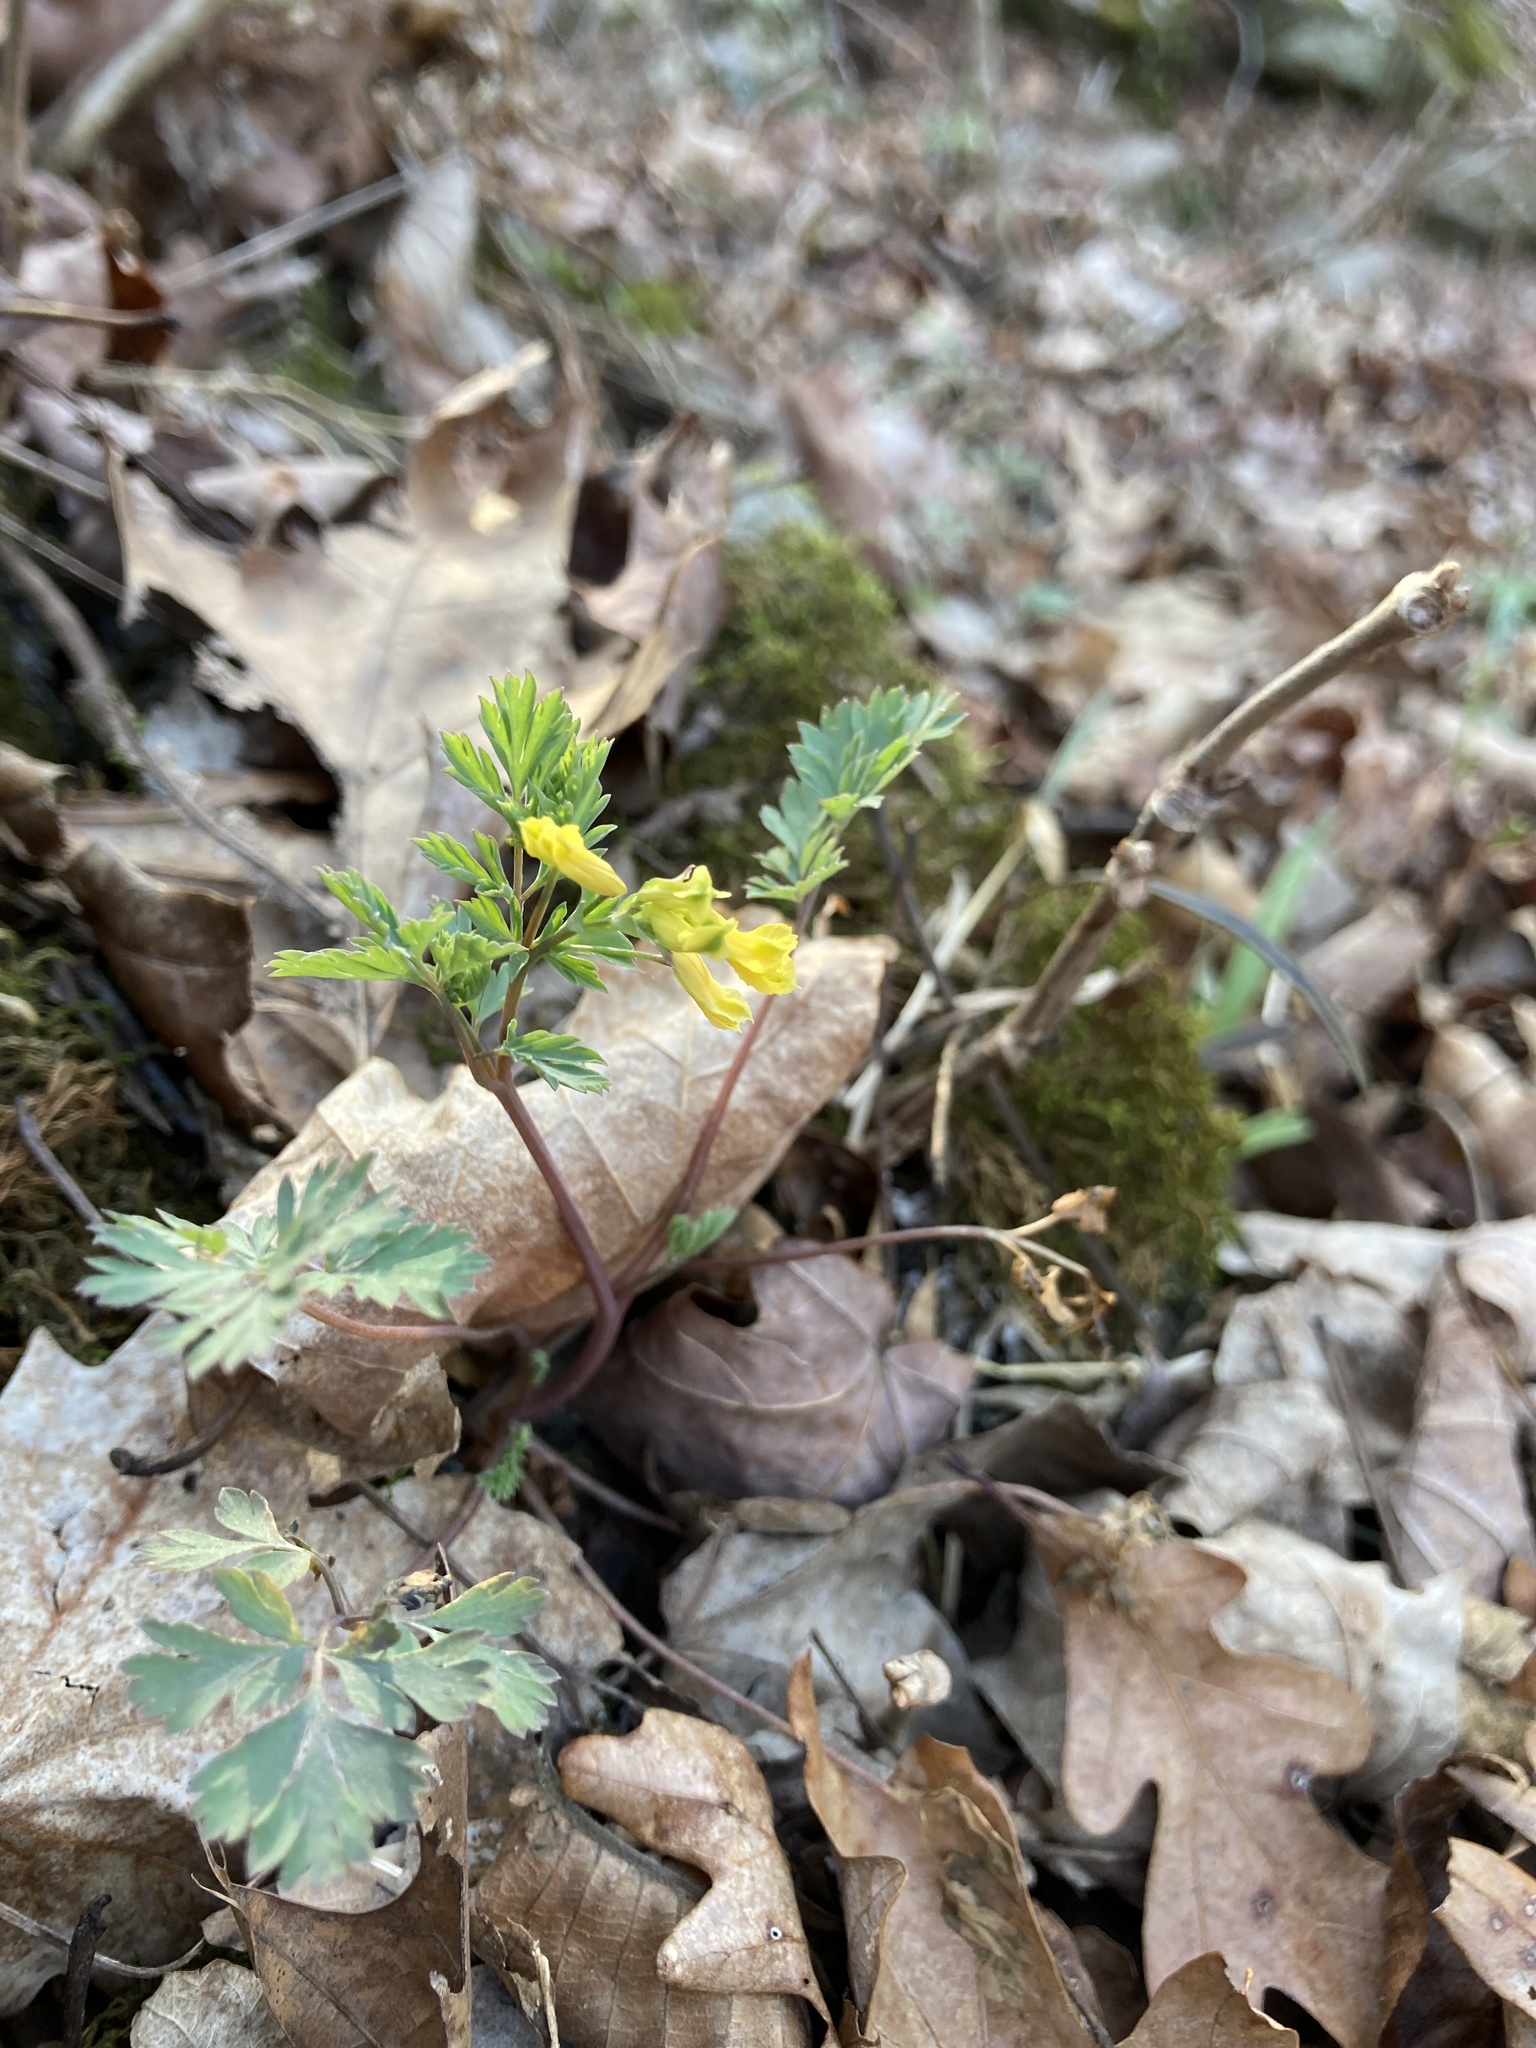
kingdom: Plantae
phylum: Tracheophyta
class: Magnoliopsida
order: Ranunculales
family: Papaveraceae
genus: Corydalis
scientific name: Corydalis flavula
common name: Yellow corydalis
